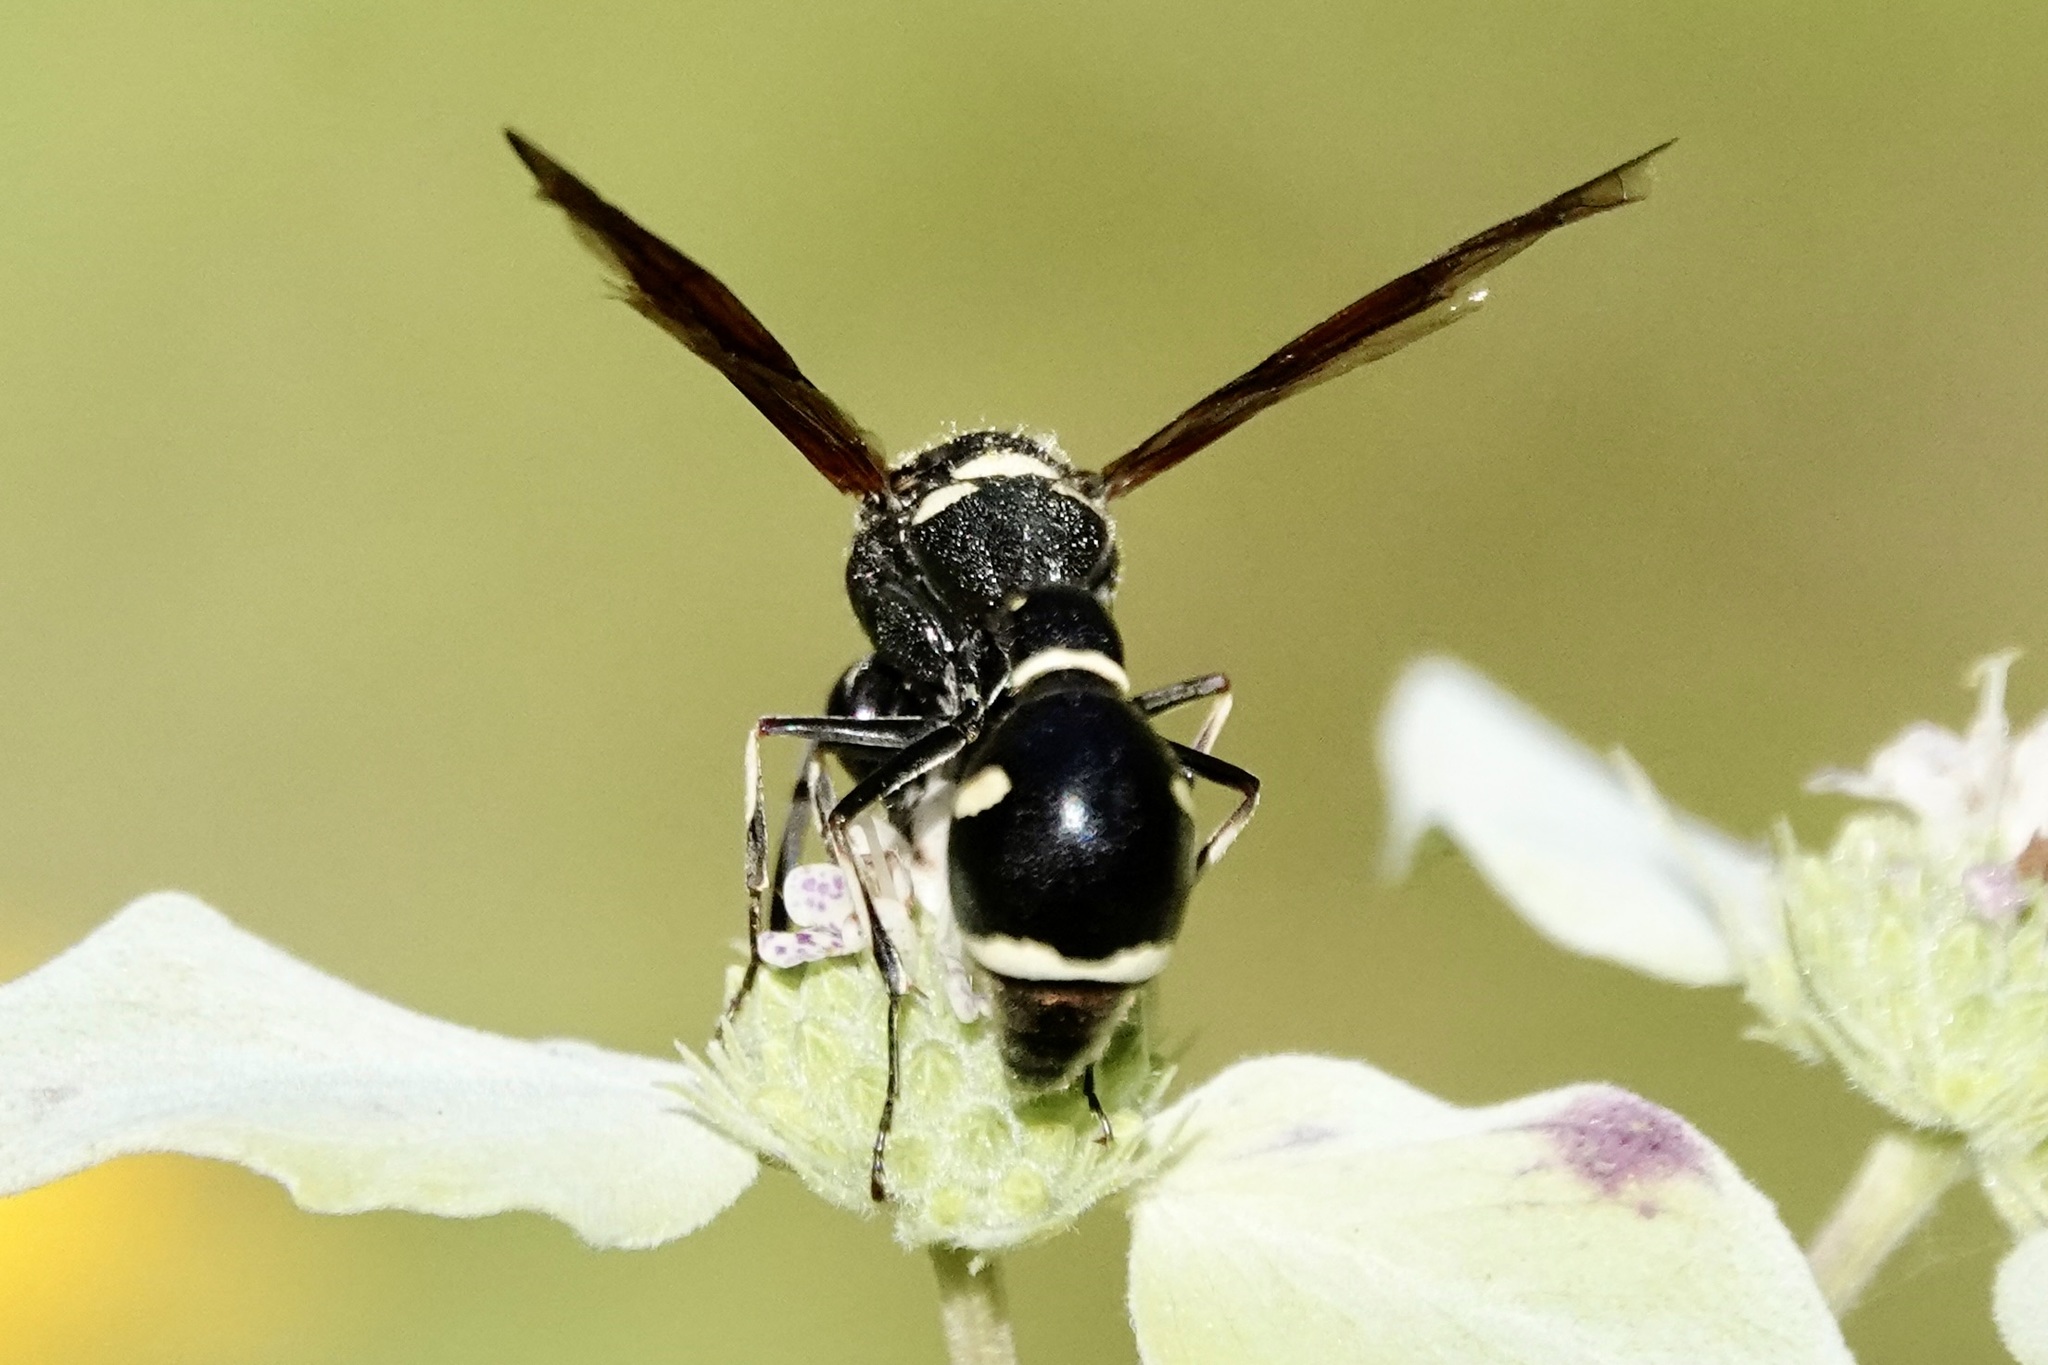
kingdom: Animalia
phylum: Arthropoda
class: Insecta
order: Hymenoptera
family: Vespidae
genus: Eumenes
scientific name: Eumenes fraternus
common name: Fraternal potter wasp
